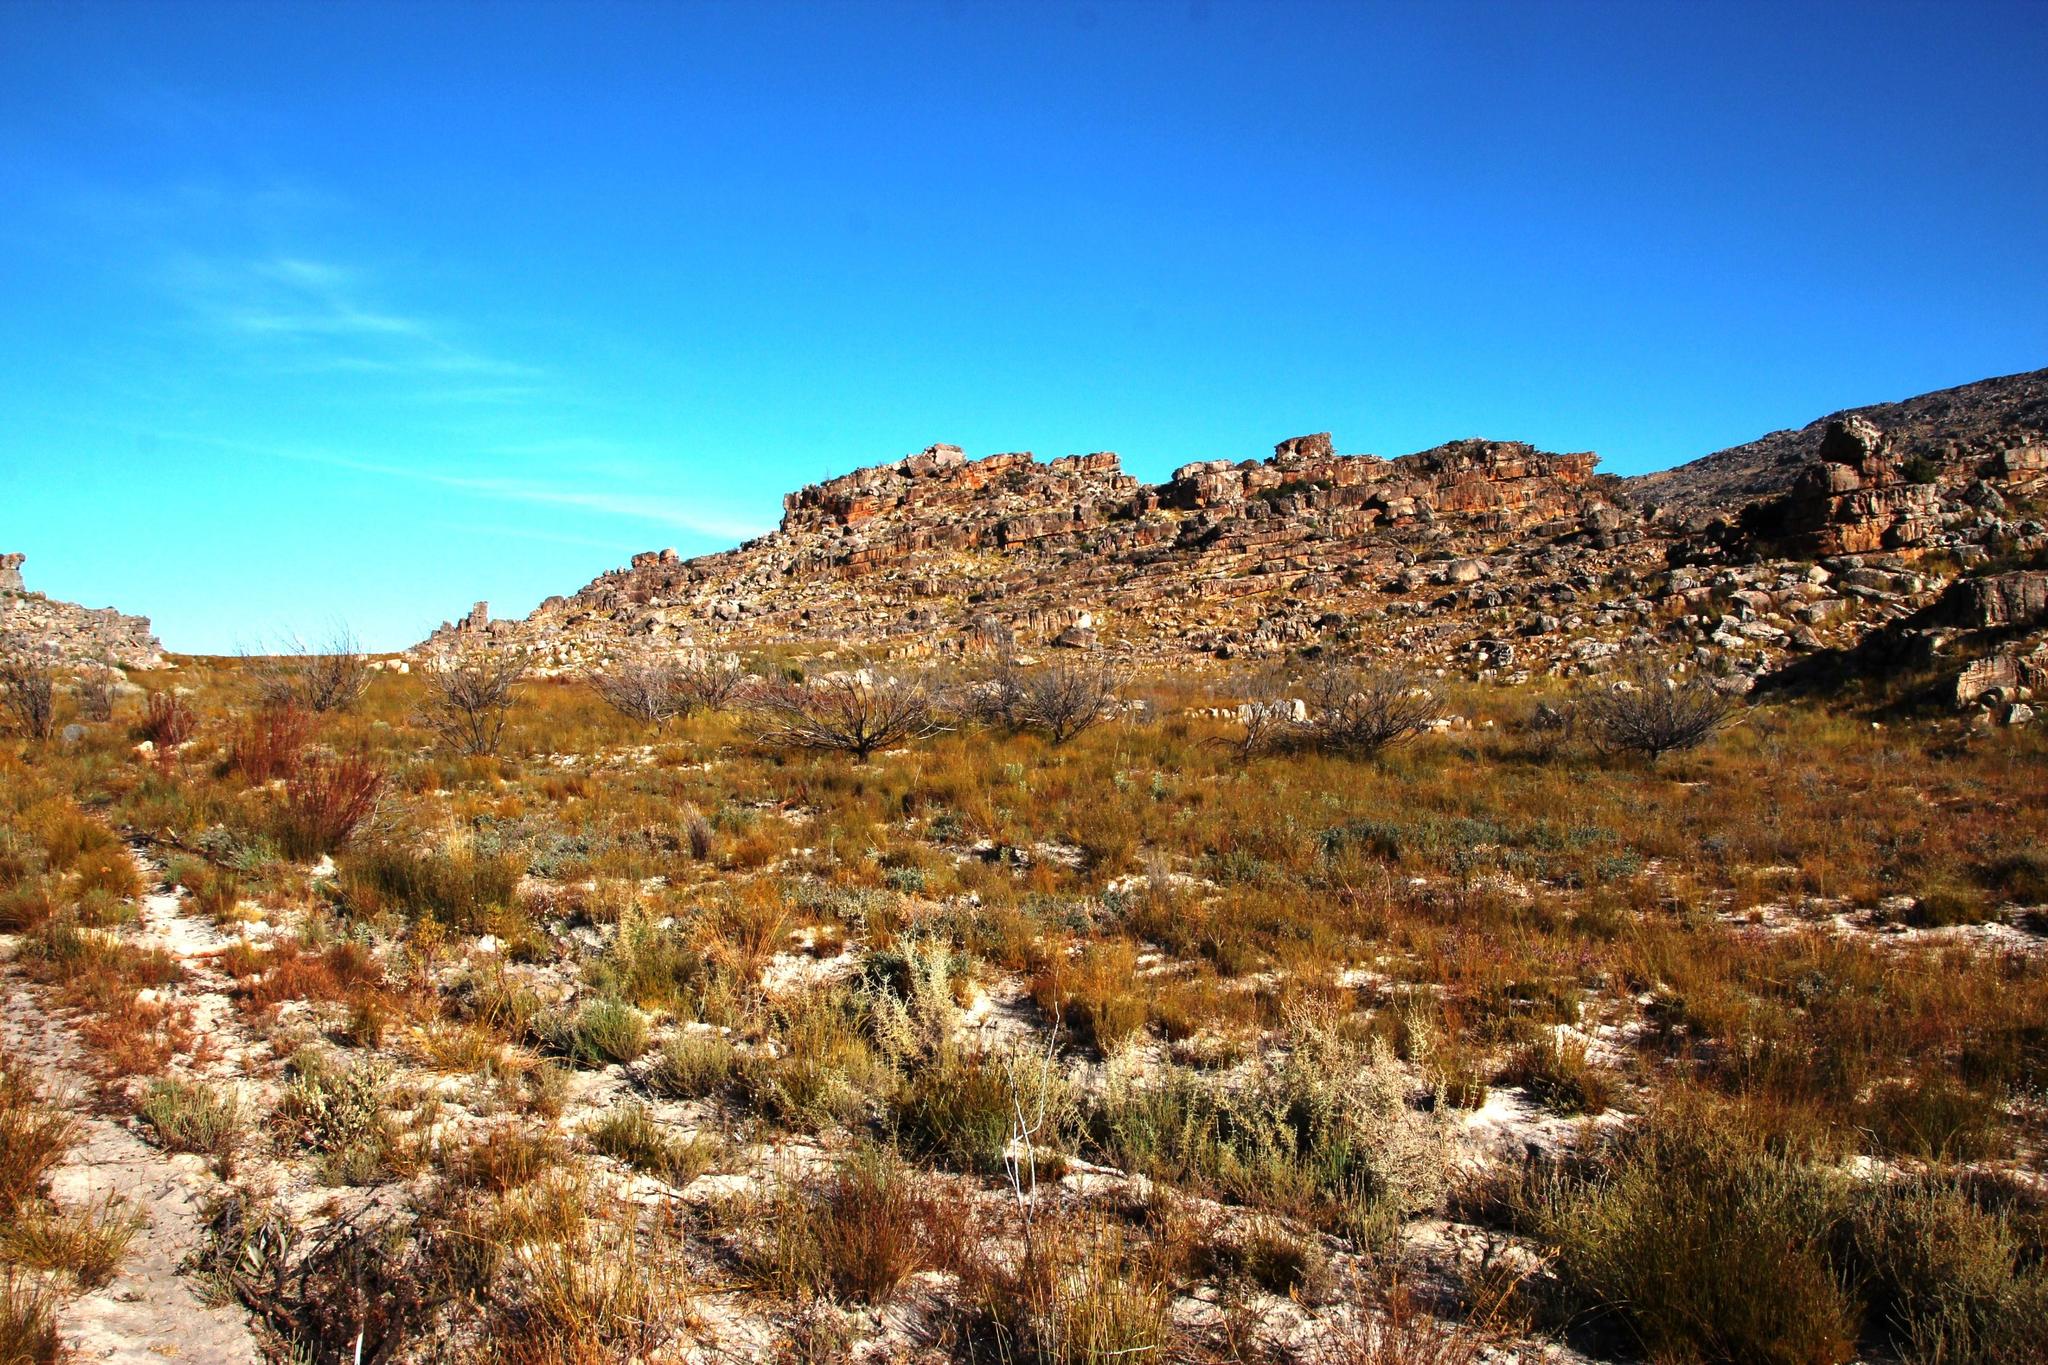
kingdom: Plantae
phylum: Tracheophyta
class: Magnoliopsida
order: Proteales
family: Proteaceae
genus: Leucospermum
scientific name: Leucospermum reflexum
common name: Rocket pincushion
